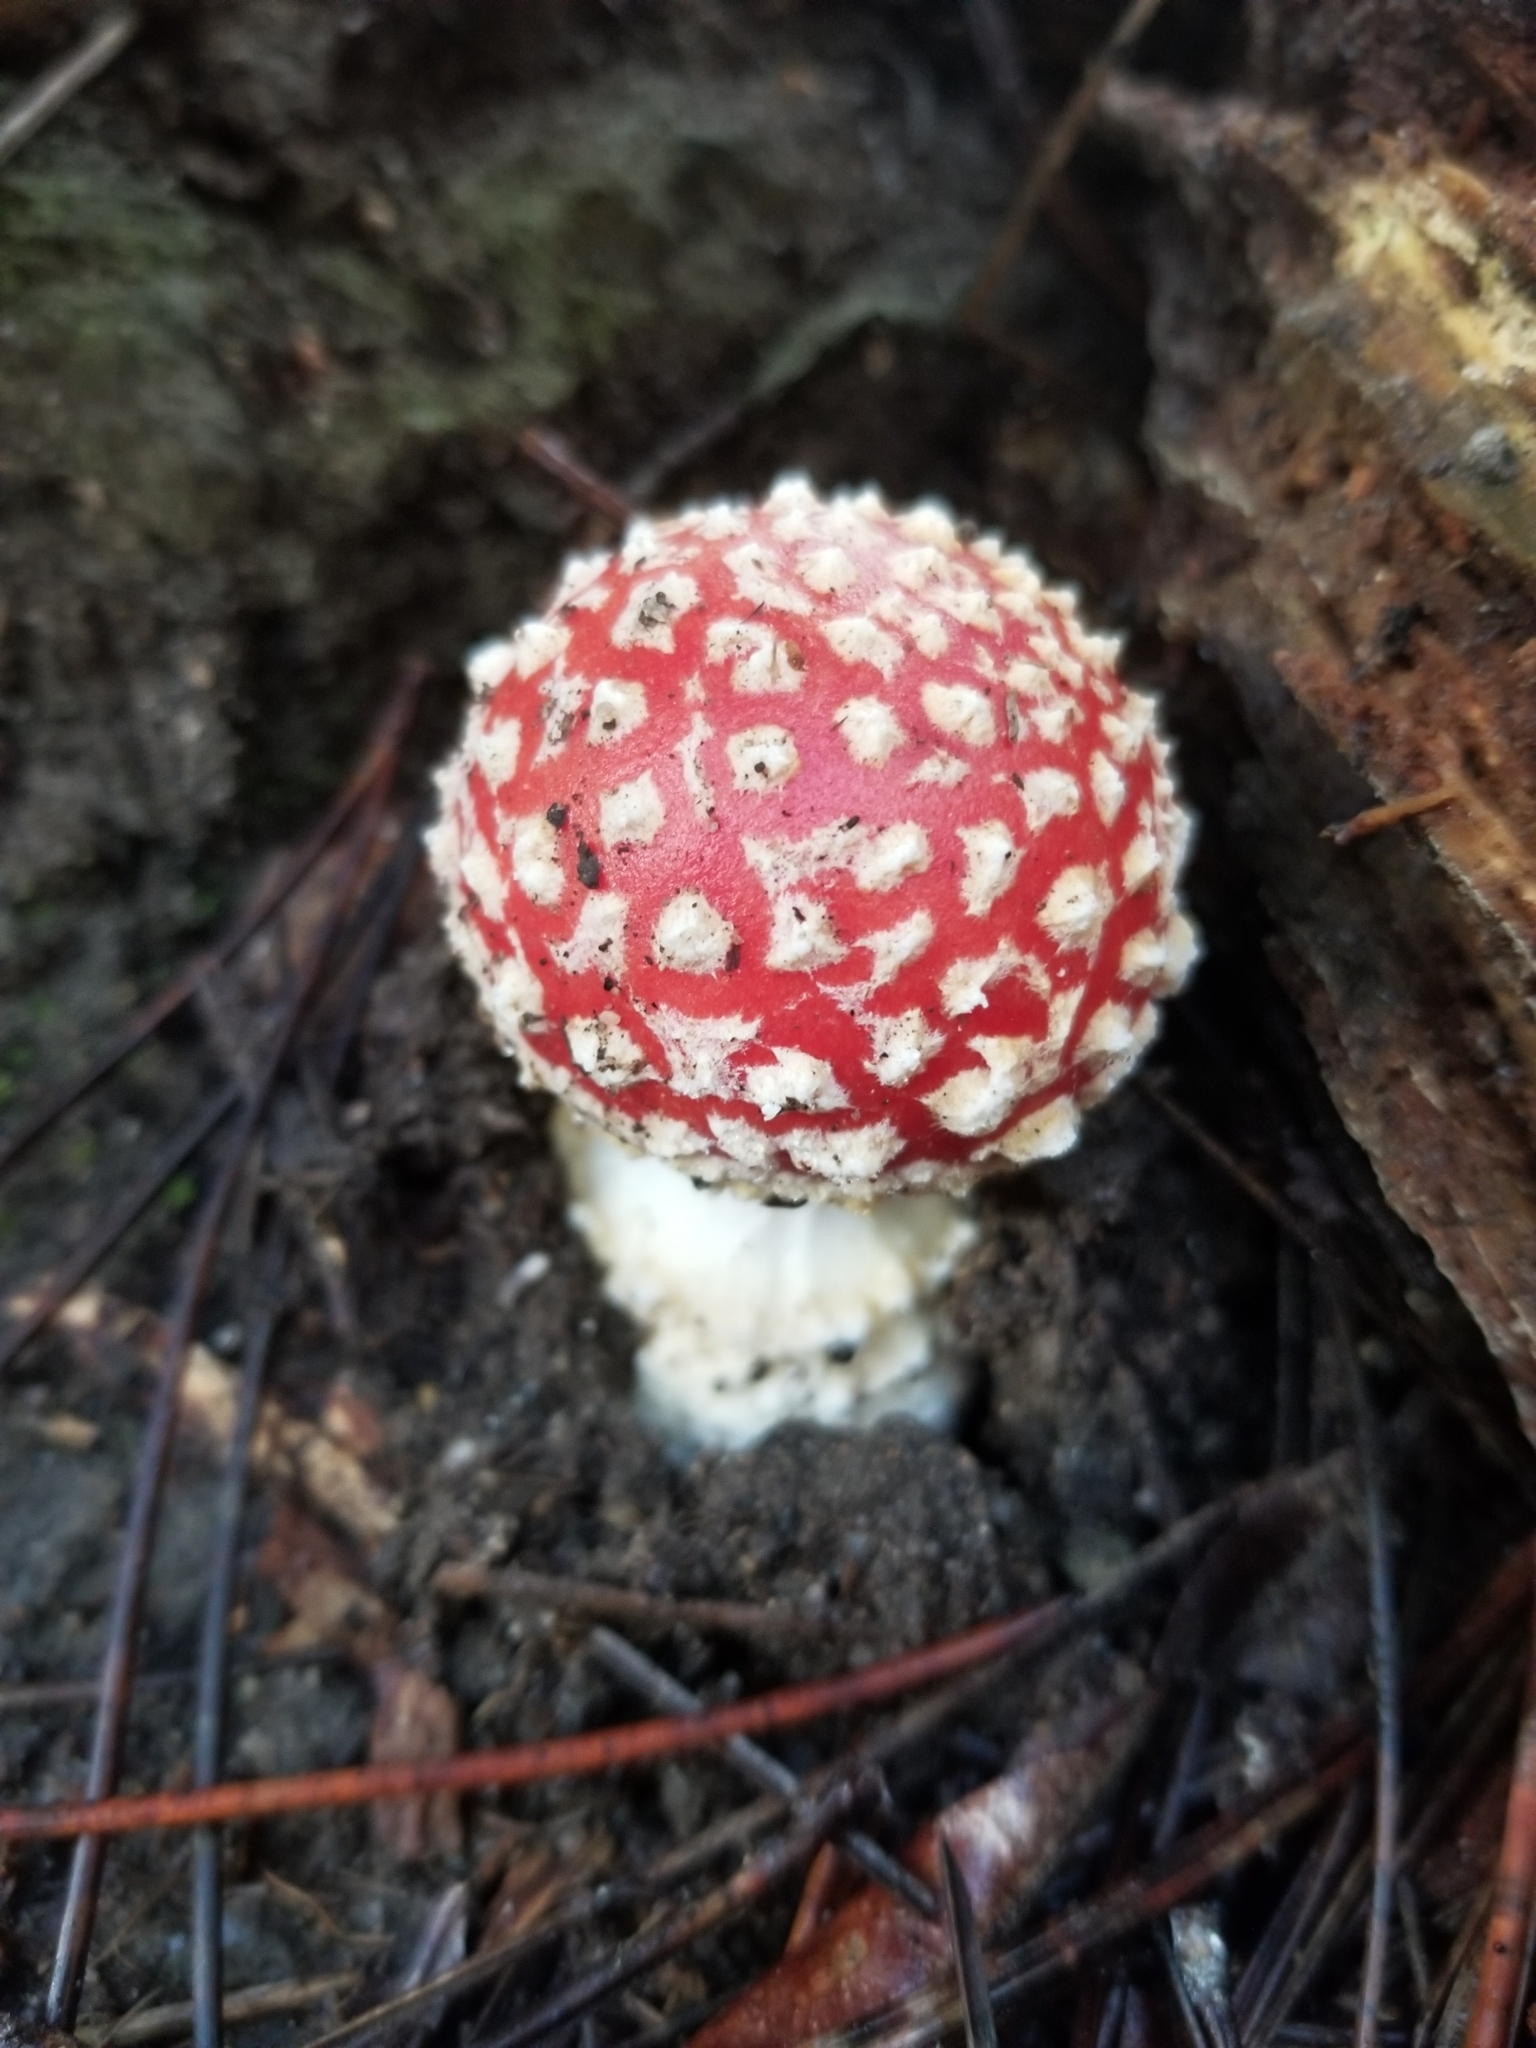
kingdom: Fungi
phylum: Basidiomycota
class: Agaricomycetes
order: Agaricales
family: Amanitaceae
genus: Amanita
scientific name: Amanita muscaria
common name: Fly agaric
